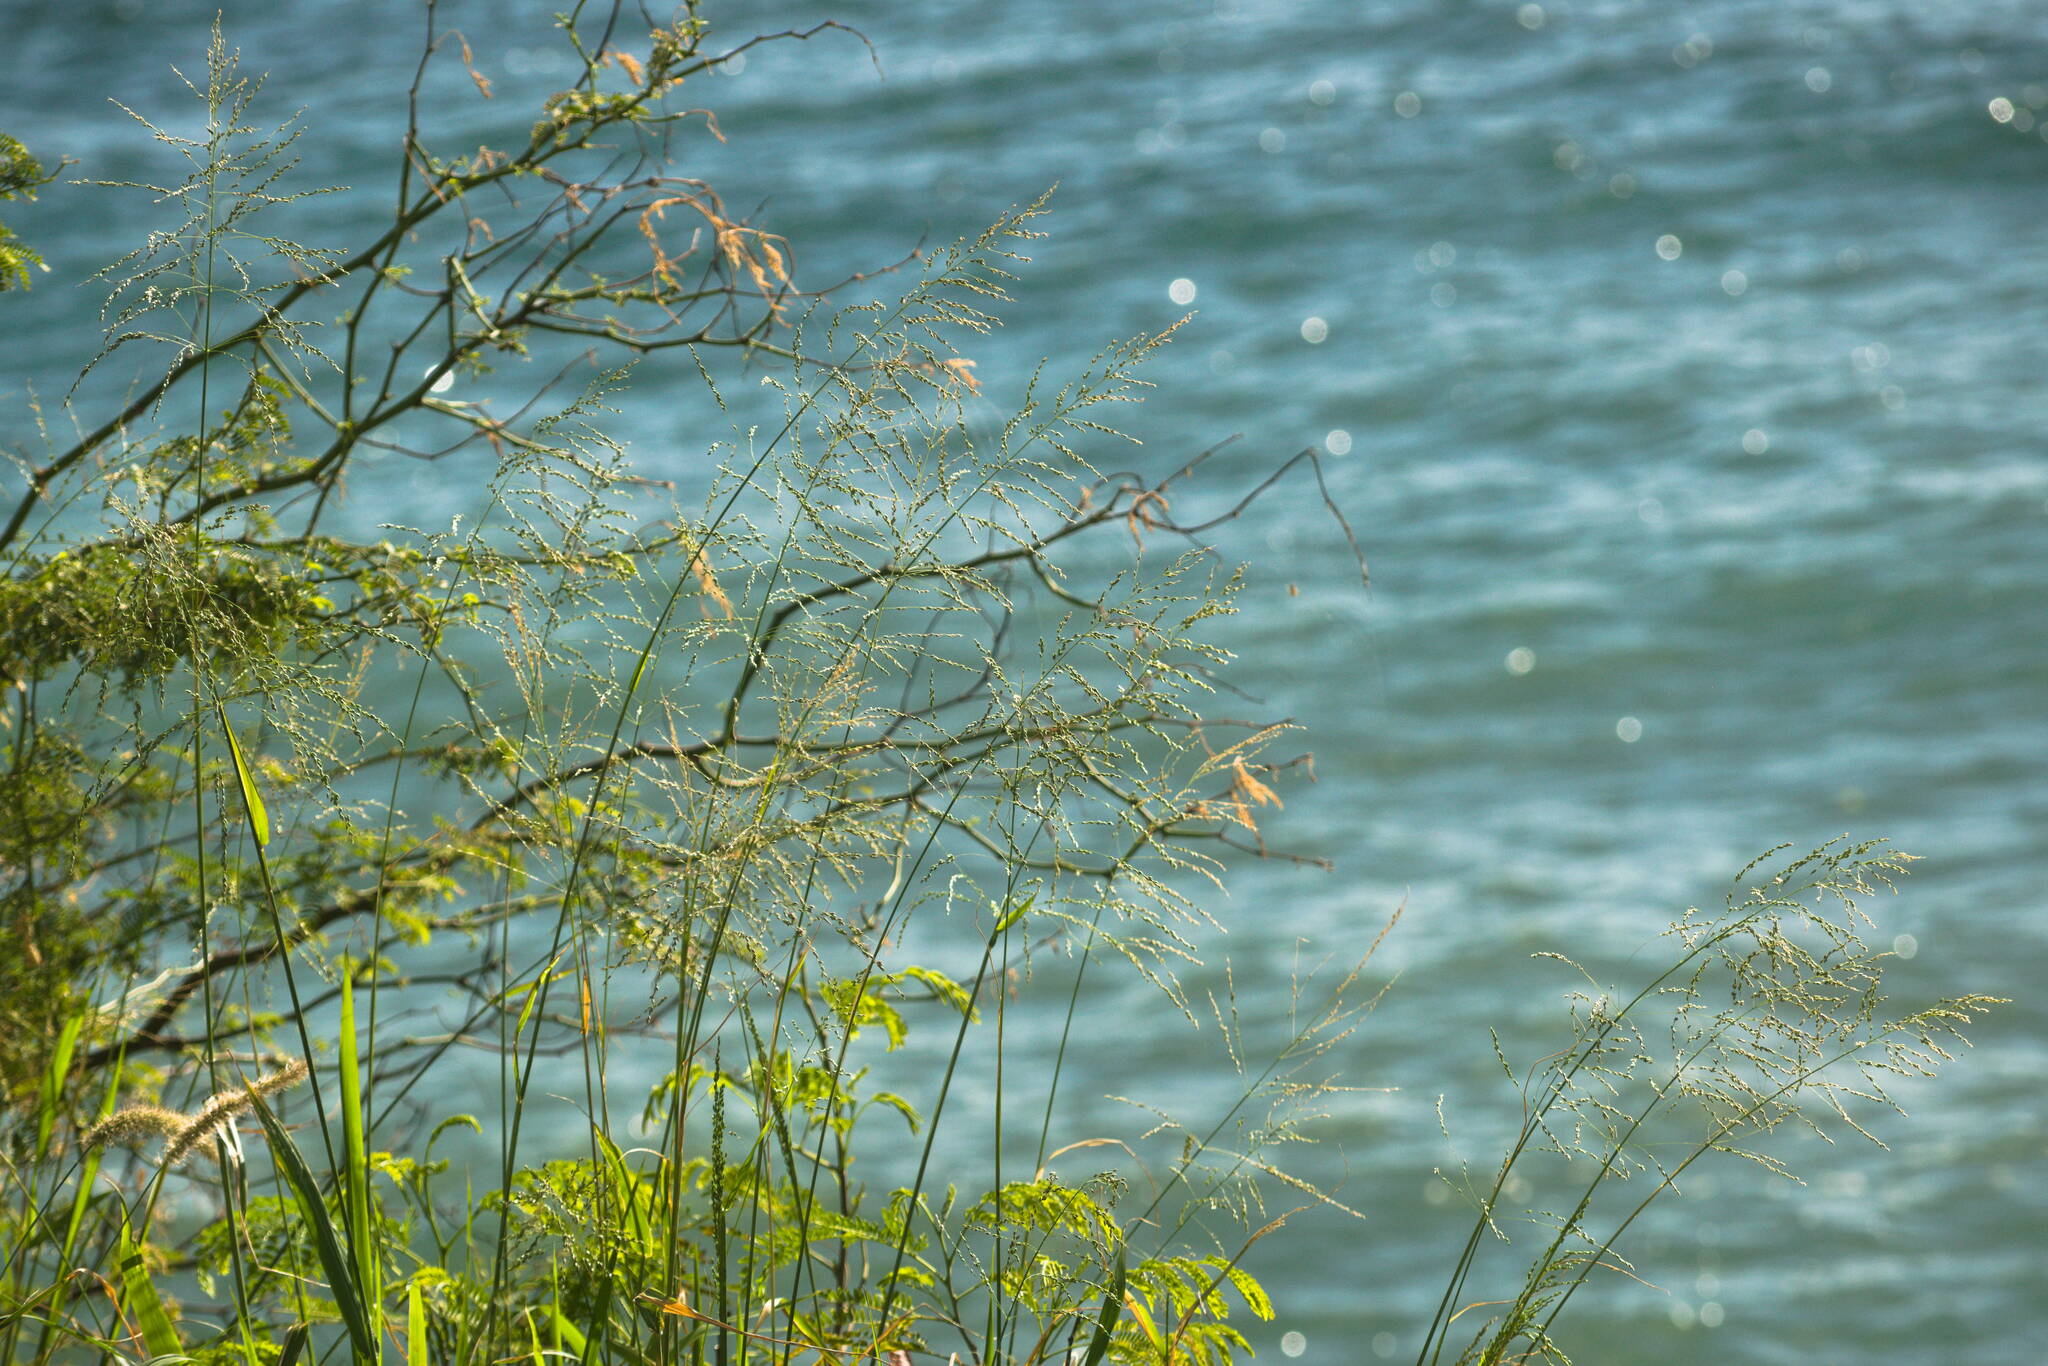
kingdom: Plantae
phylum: Tracheophyta
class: Liliopsida
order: Poales
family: Poaceae
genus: Megathyrsus
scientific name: Megathyrsus maximus
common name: Guineagrass
